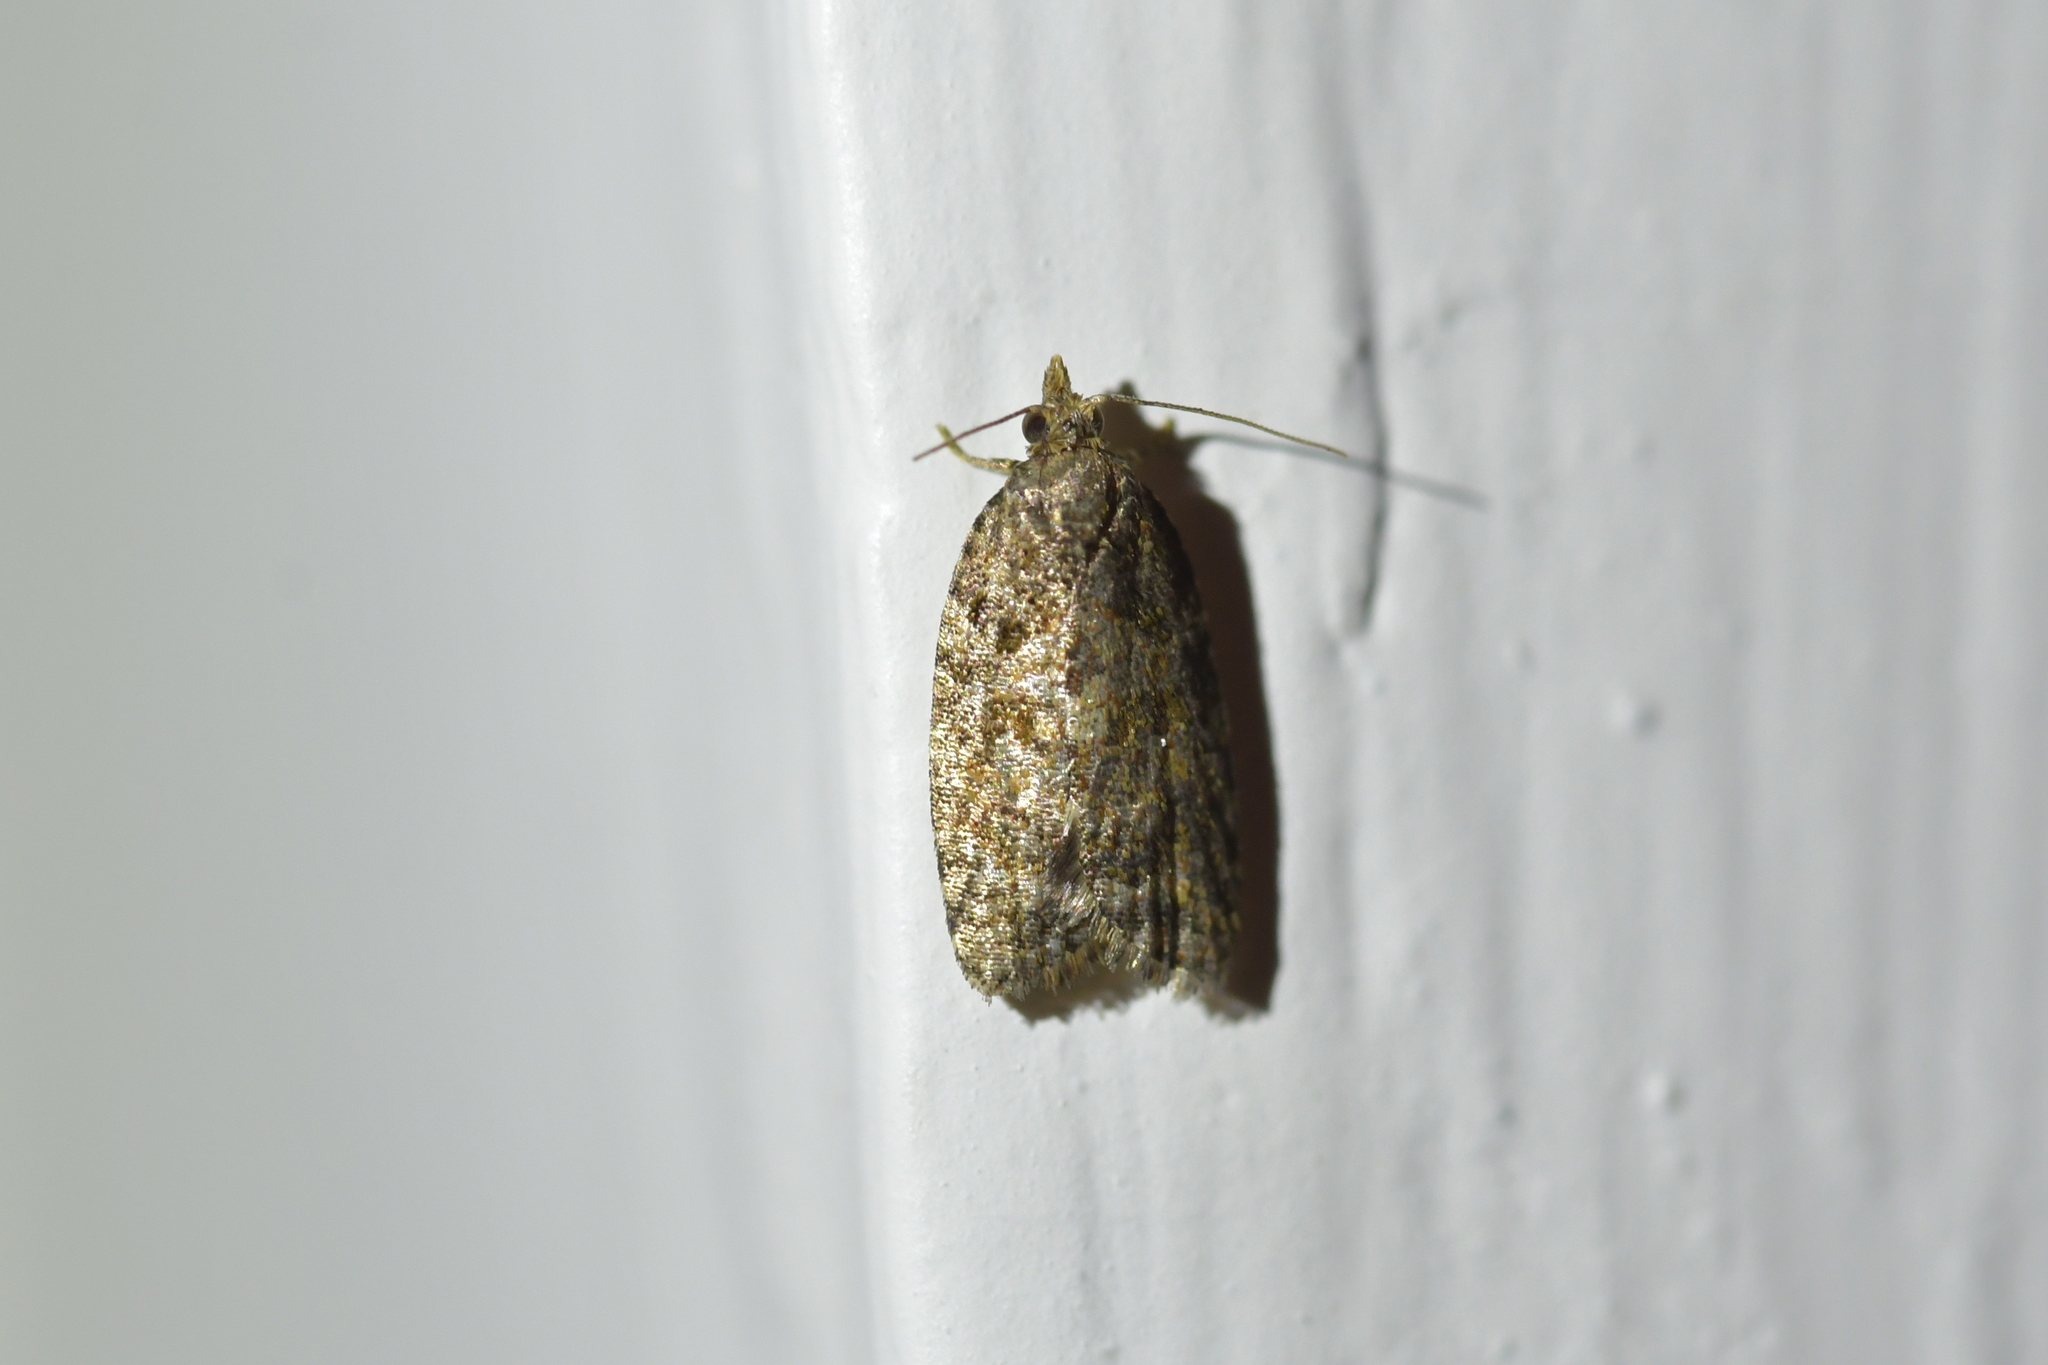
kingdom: Animalia
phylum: Arthropoda
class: Insecta
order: Lepidoptera
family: Tortricidae
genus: Capua
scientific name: Capua intractana
